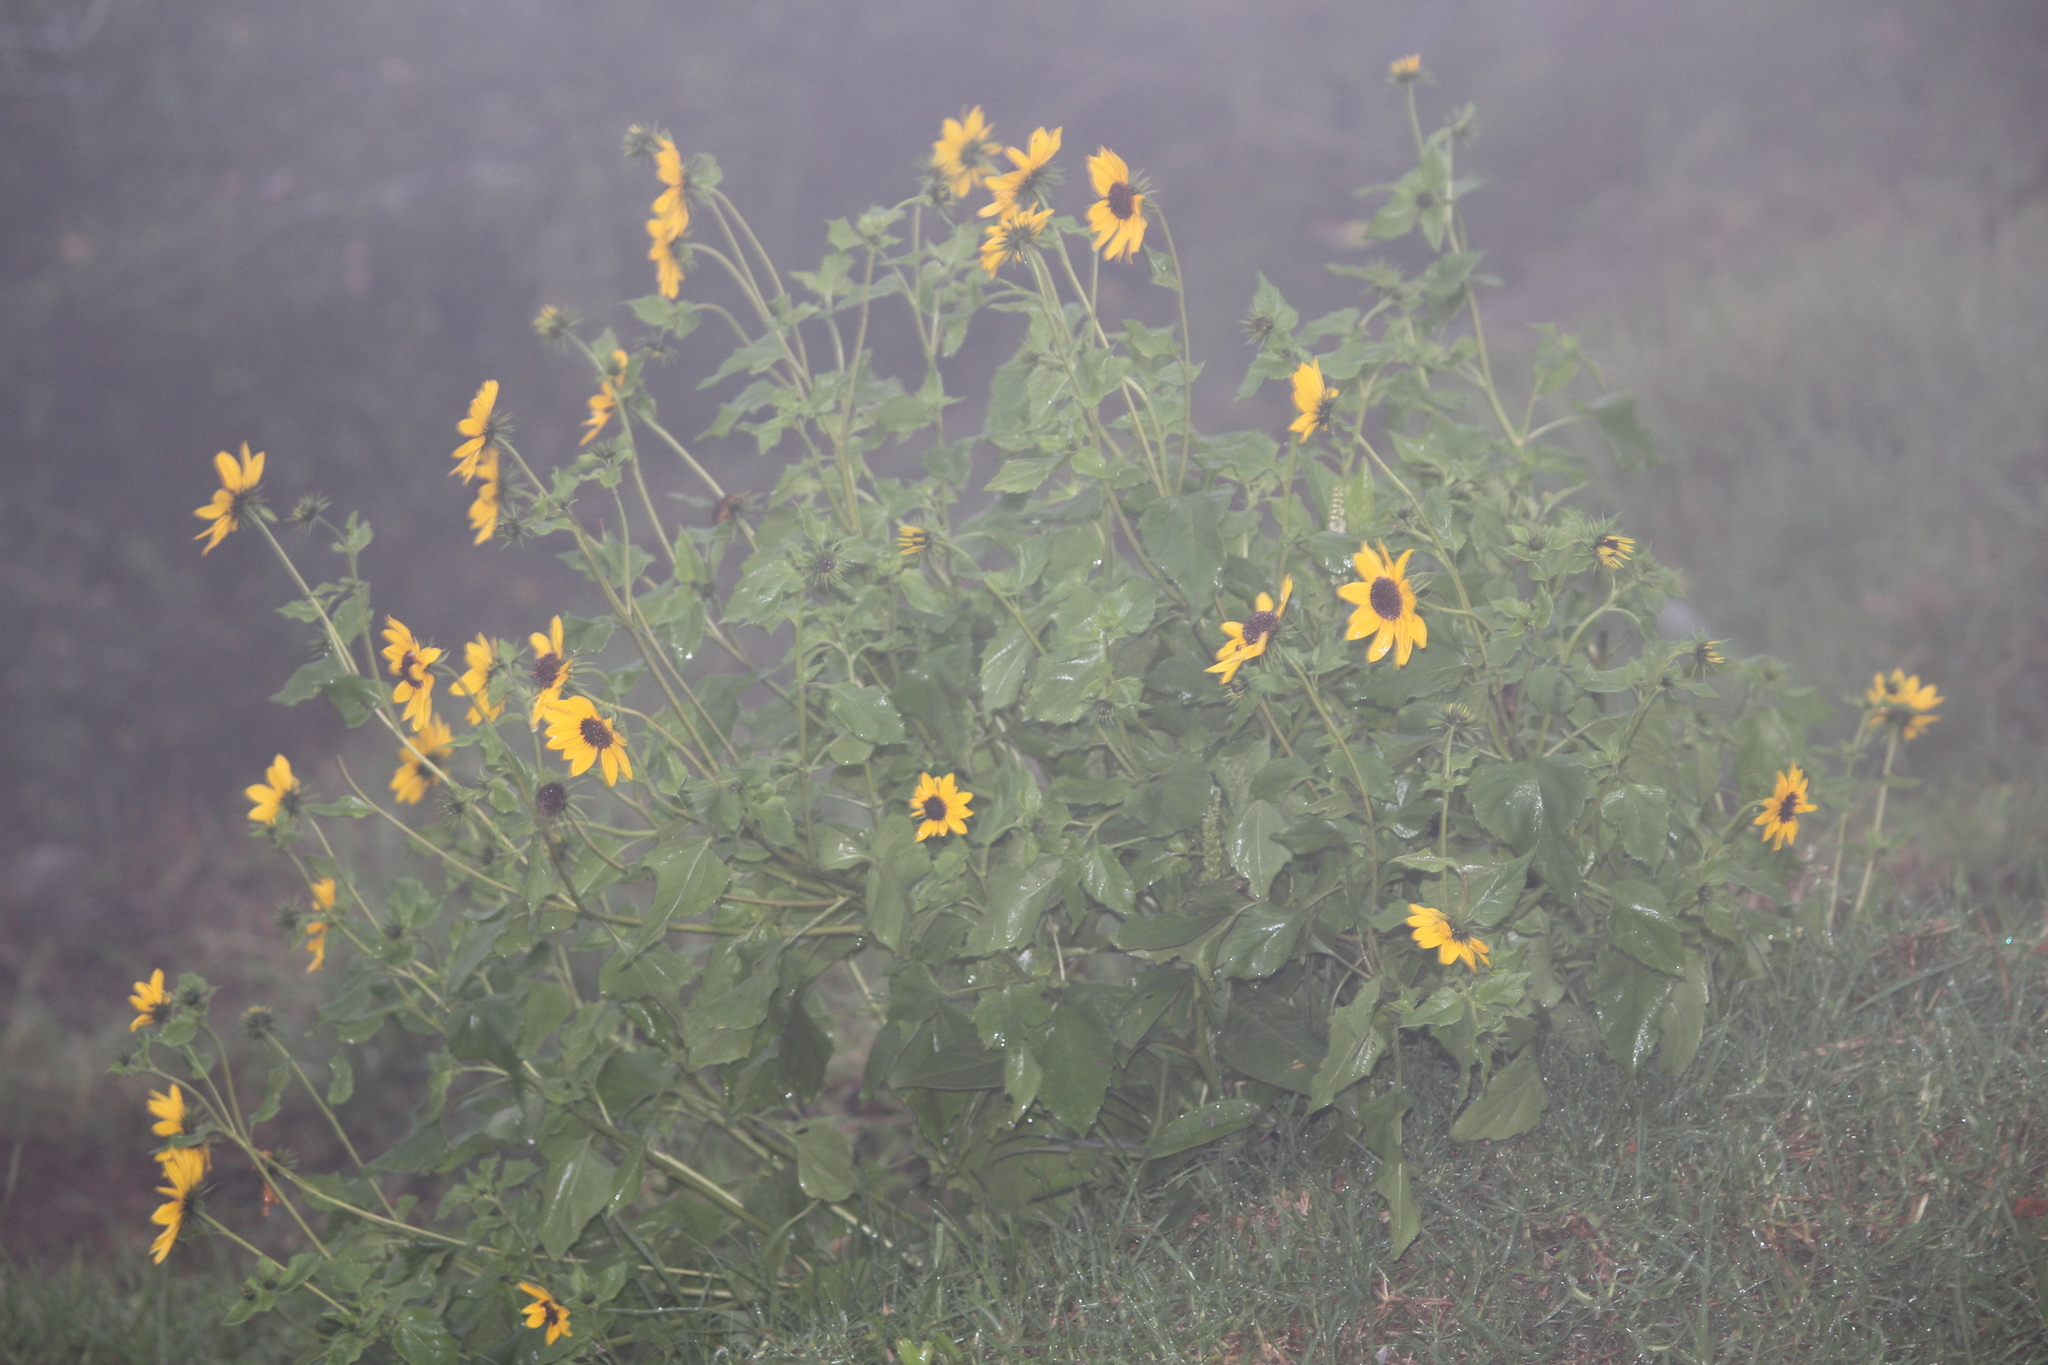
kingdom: Plantae
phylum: Tracheophyta
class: Magnoliopsida
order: Asterales
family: Asteraceae
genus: Helianthus
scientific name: Helianthus annuus
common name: Sunflower
